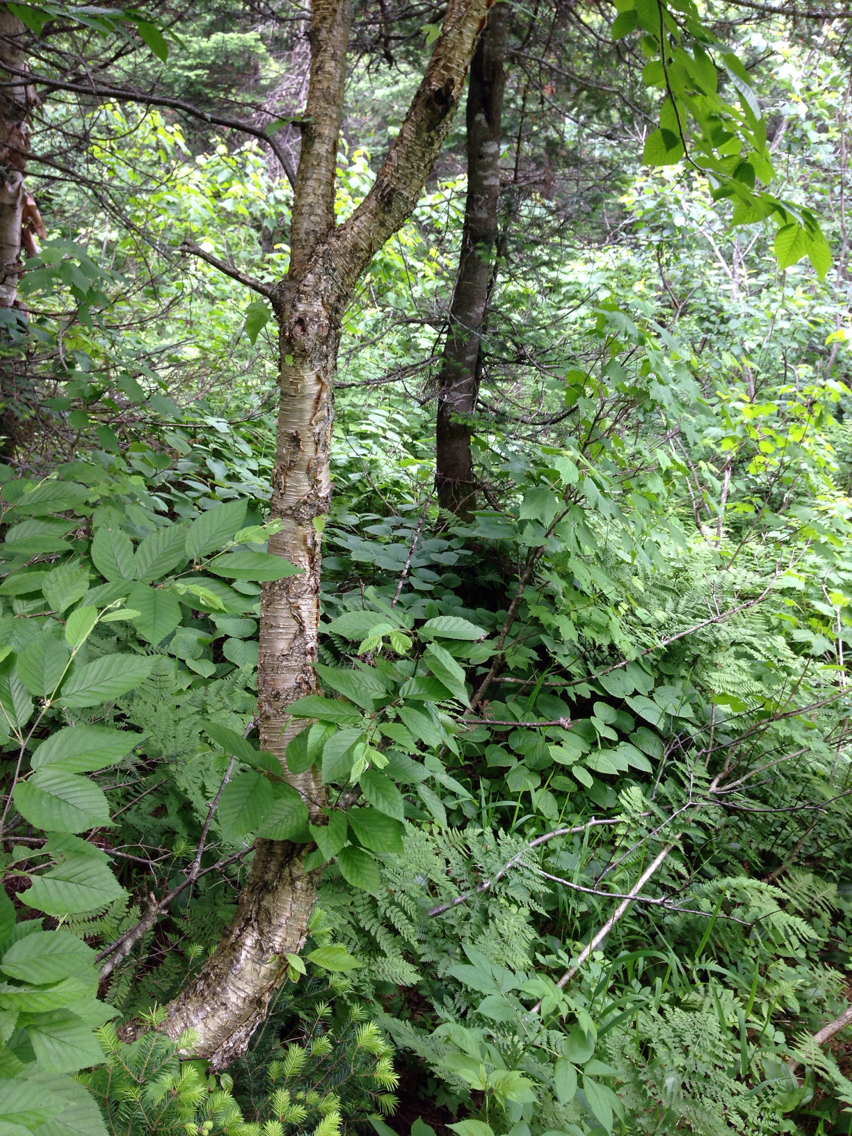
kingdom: Plantae
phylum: Tracheophyta
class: Magnoliopsida
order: Fagales
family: Betulaceae
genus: Betula
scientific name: Betula alleghaniensis
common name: Yellow birch
